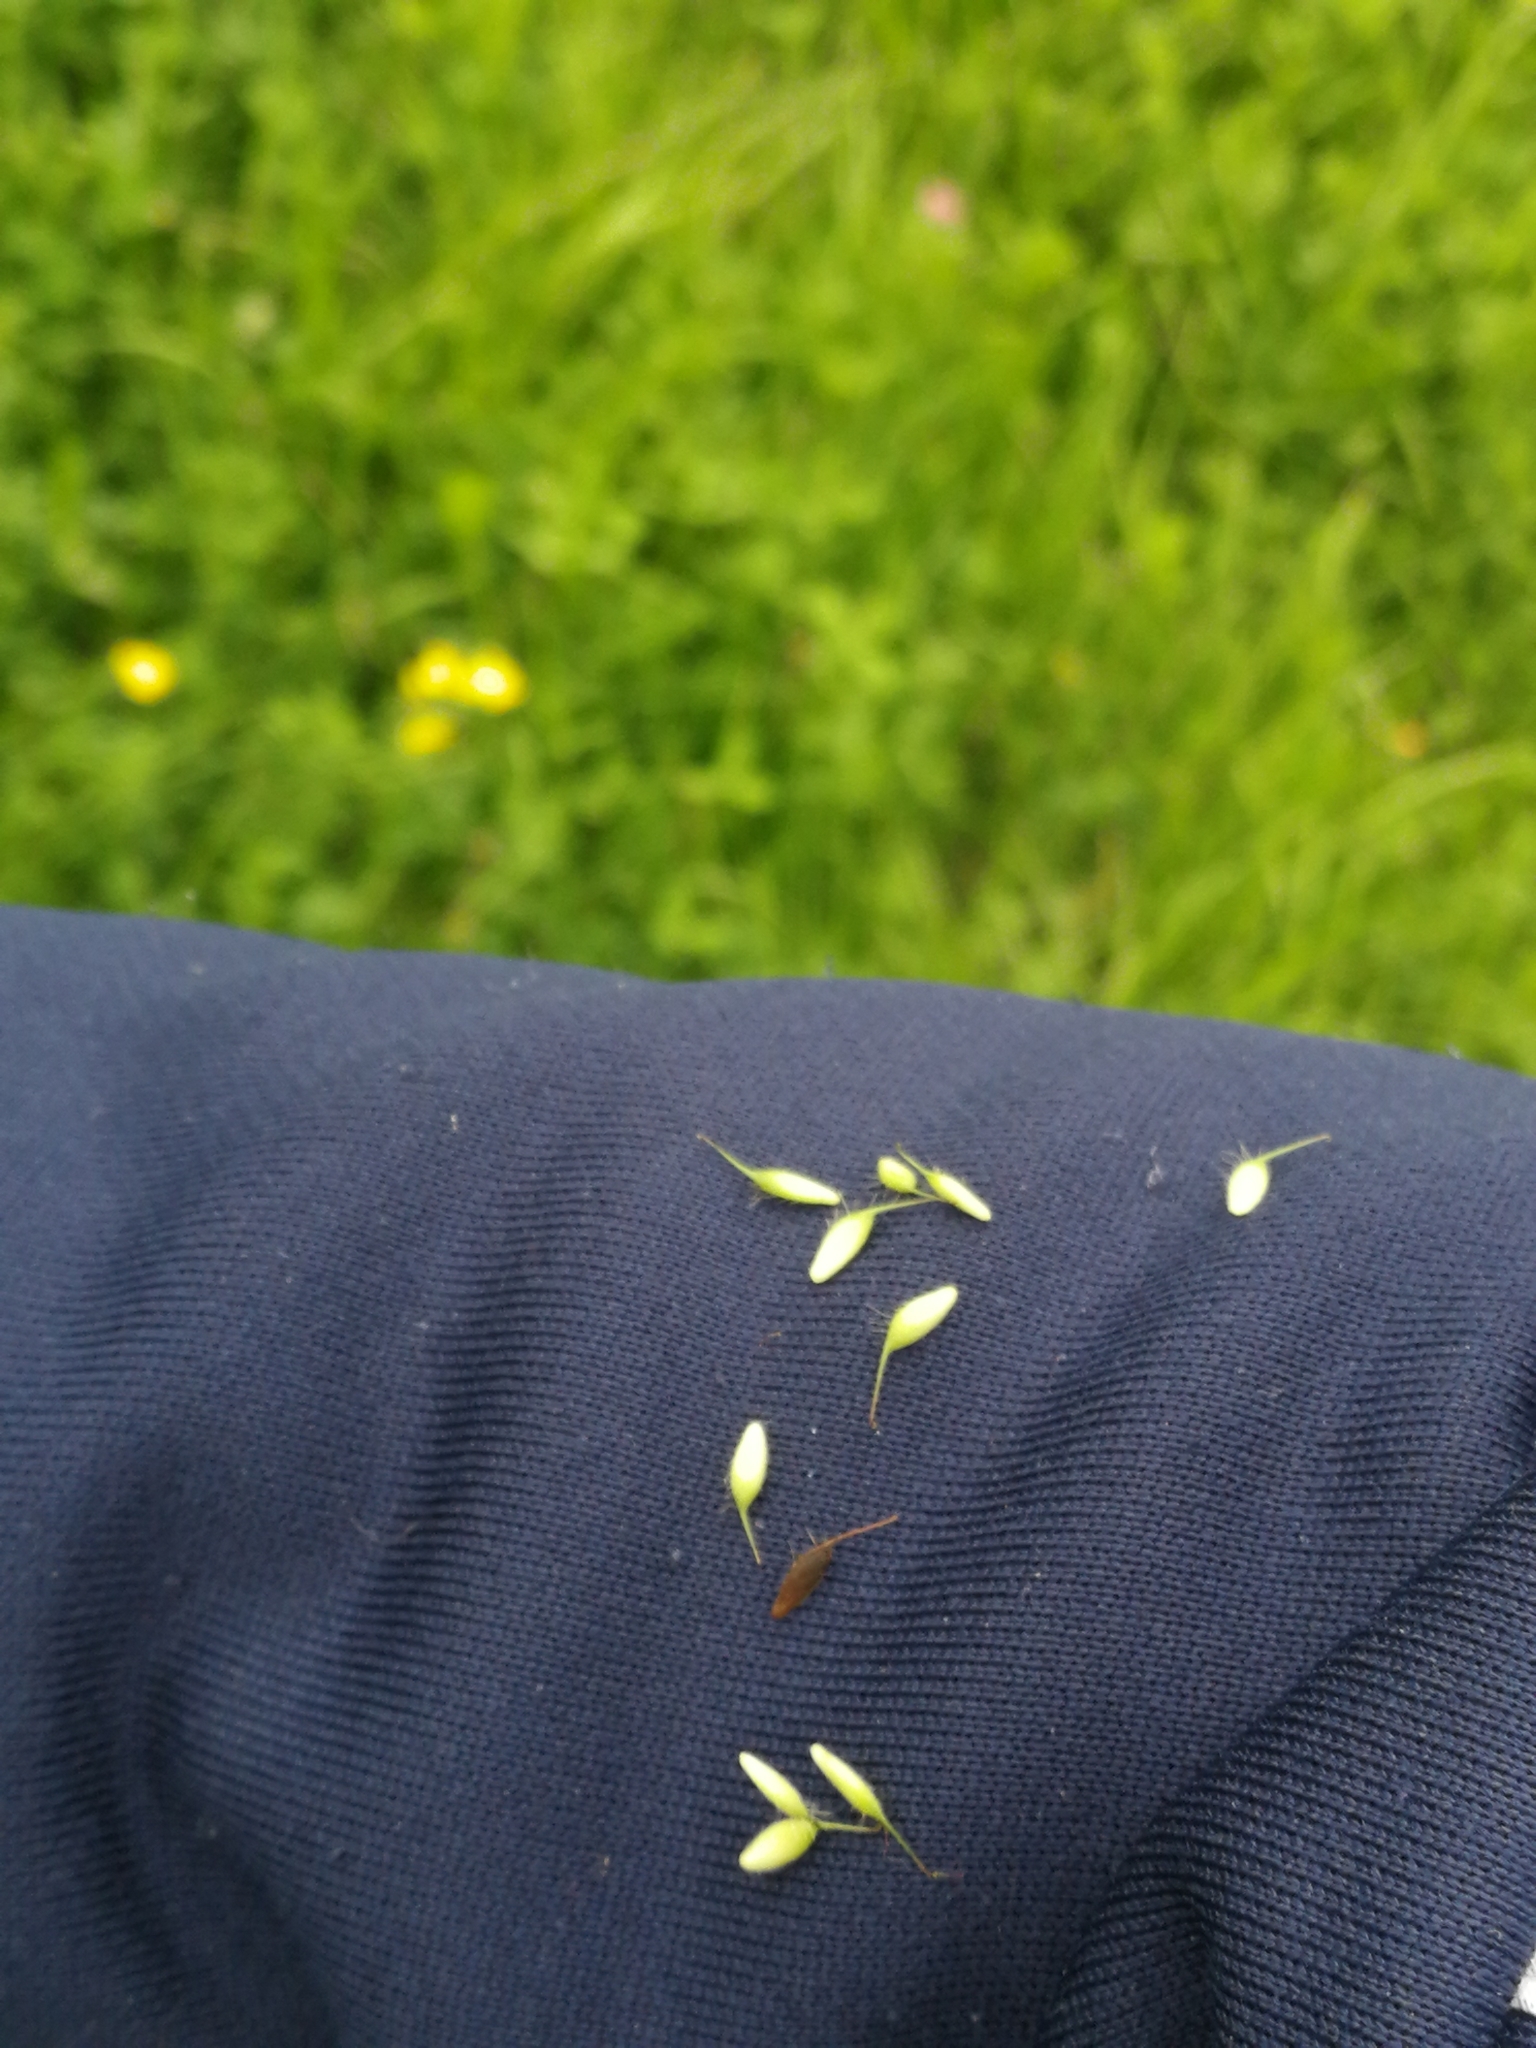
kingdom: Plantae
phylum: Tracheophyta
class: Magnoliopsida
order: Rosales
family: Rosaceae
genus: Geum
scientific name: Geum urbanum
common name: Wood avens
